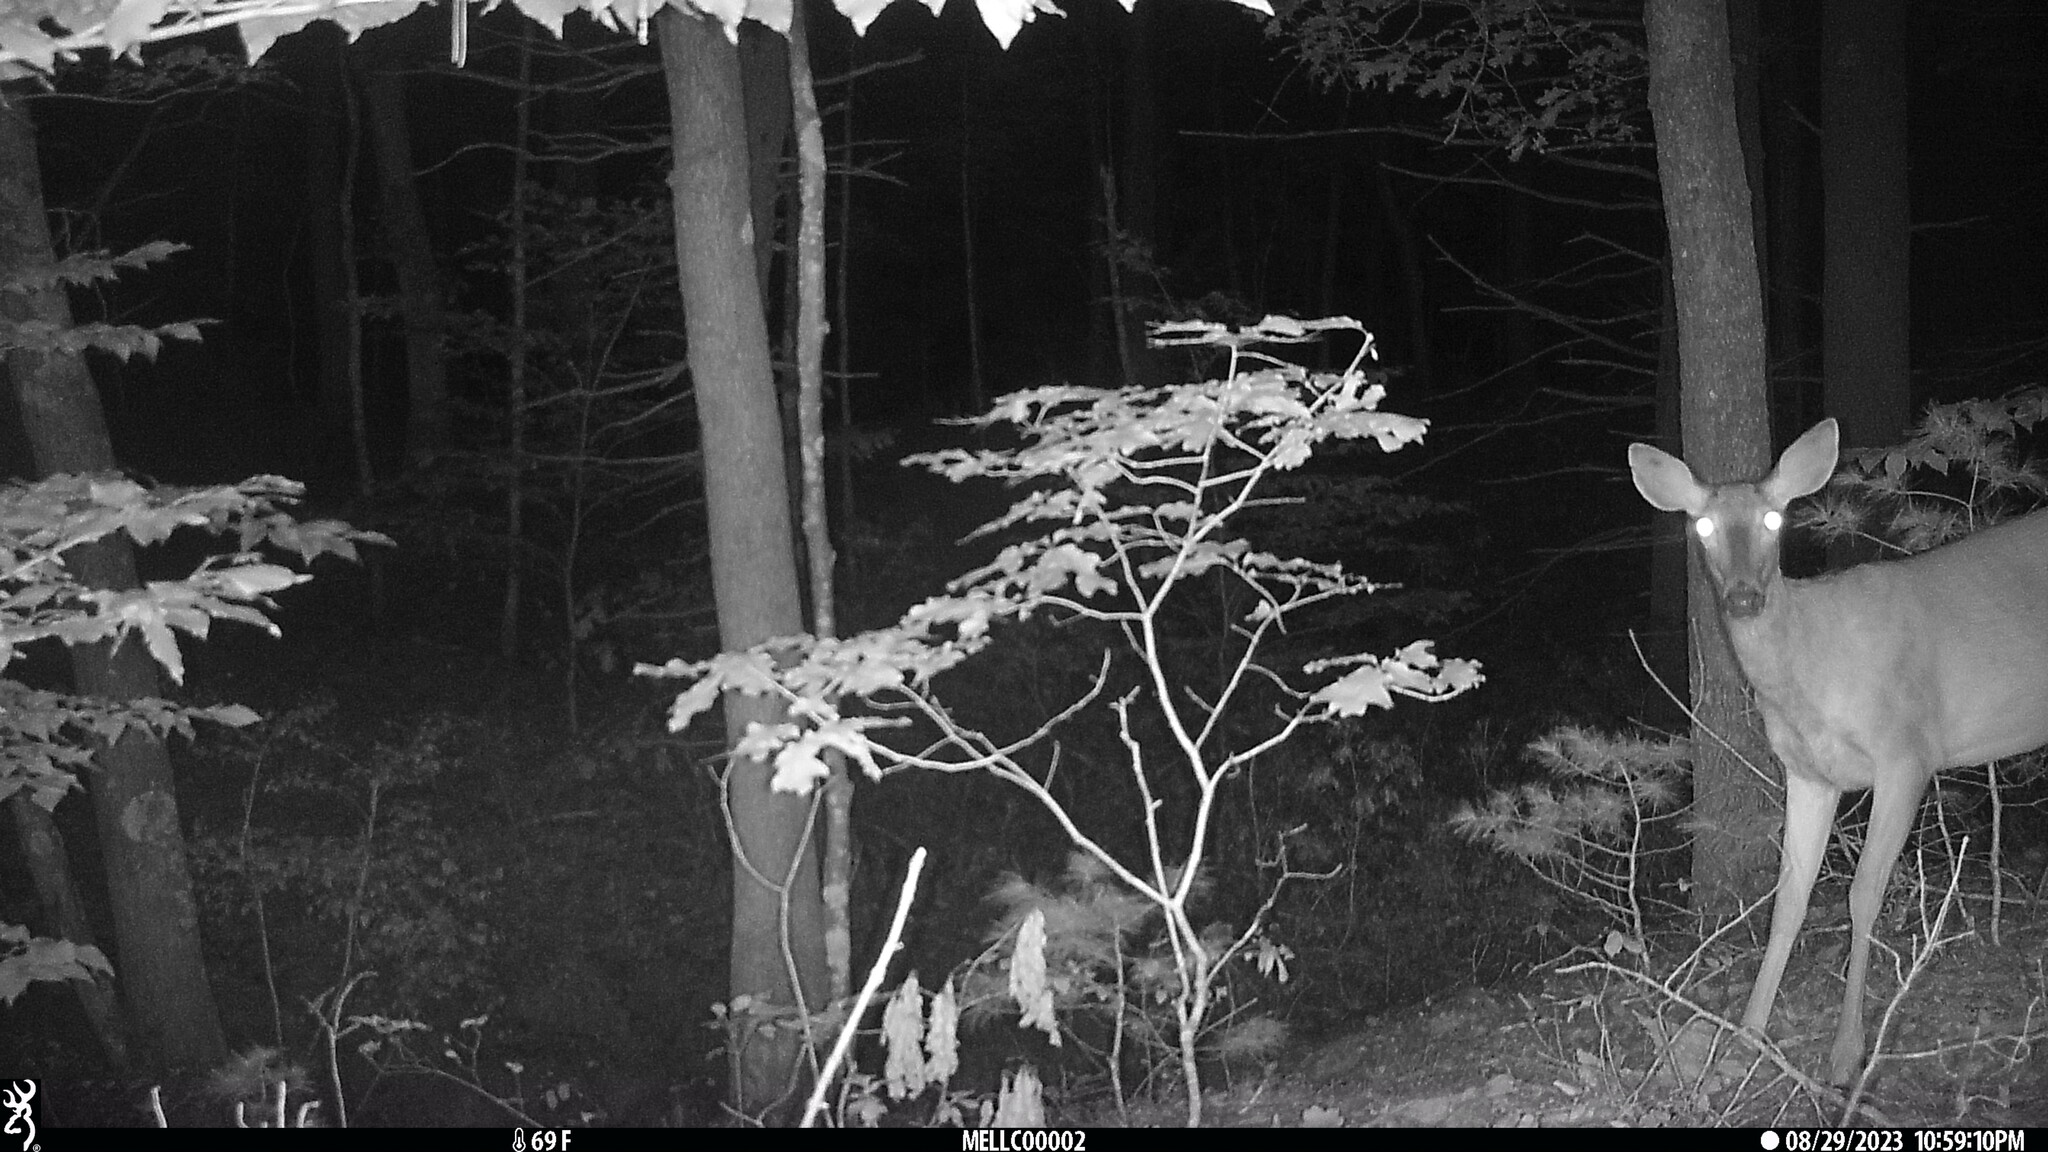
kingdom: Animalia
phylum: Chordata
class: Mammalia
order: Artiodactyla
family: Cervidae
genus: Odocoileus
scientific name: Odocoileus virginianus
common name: White-tailed deer
